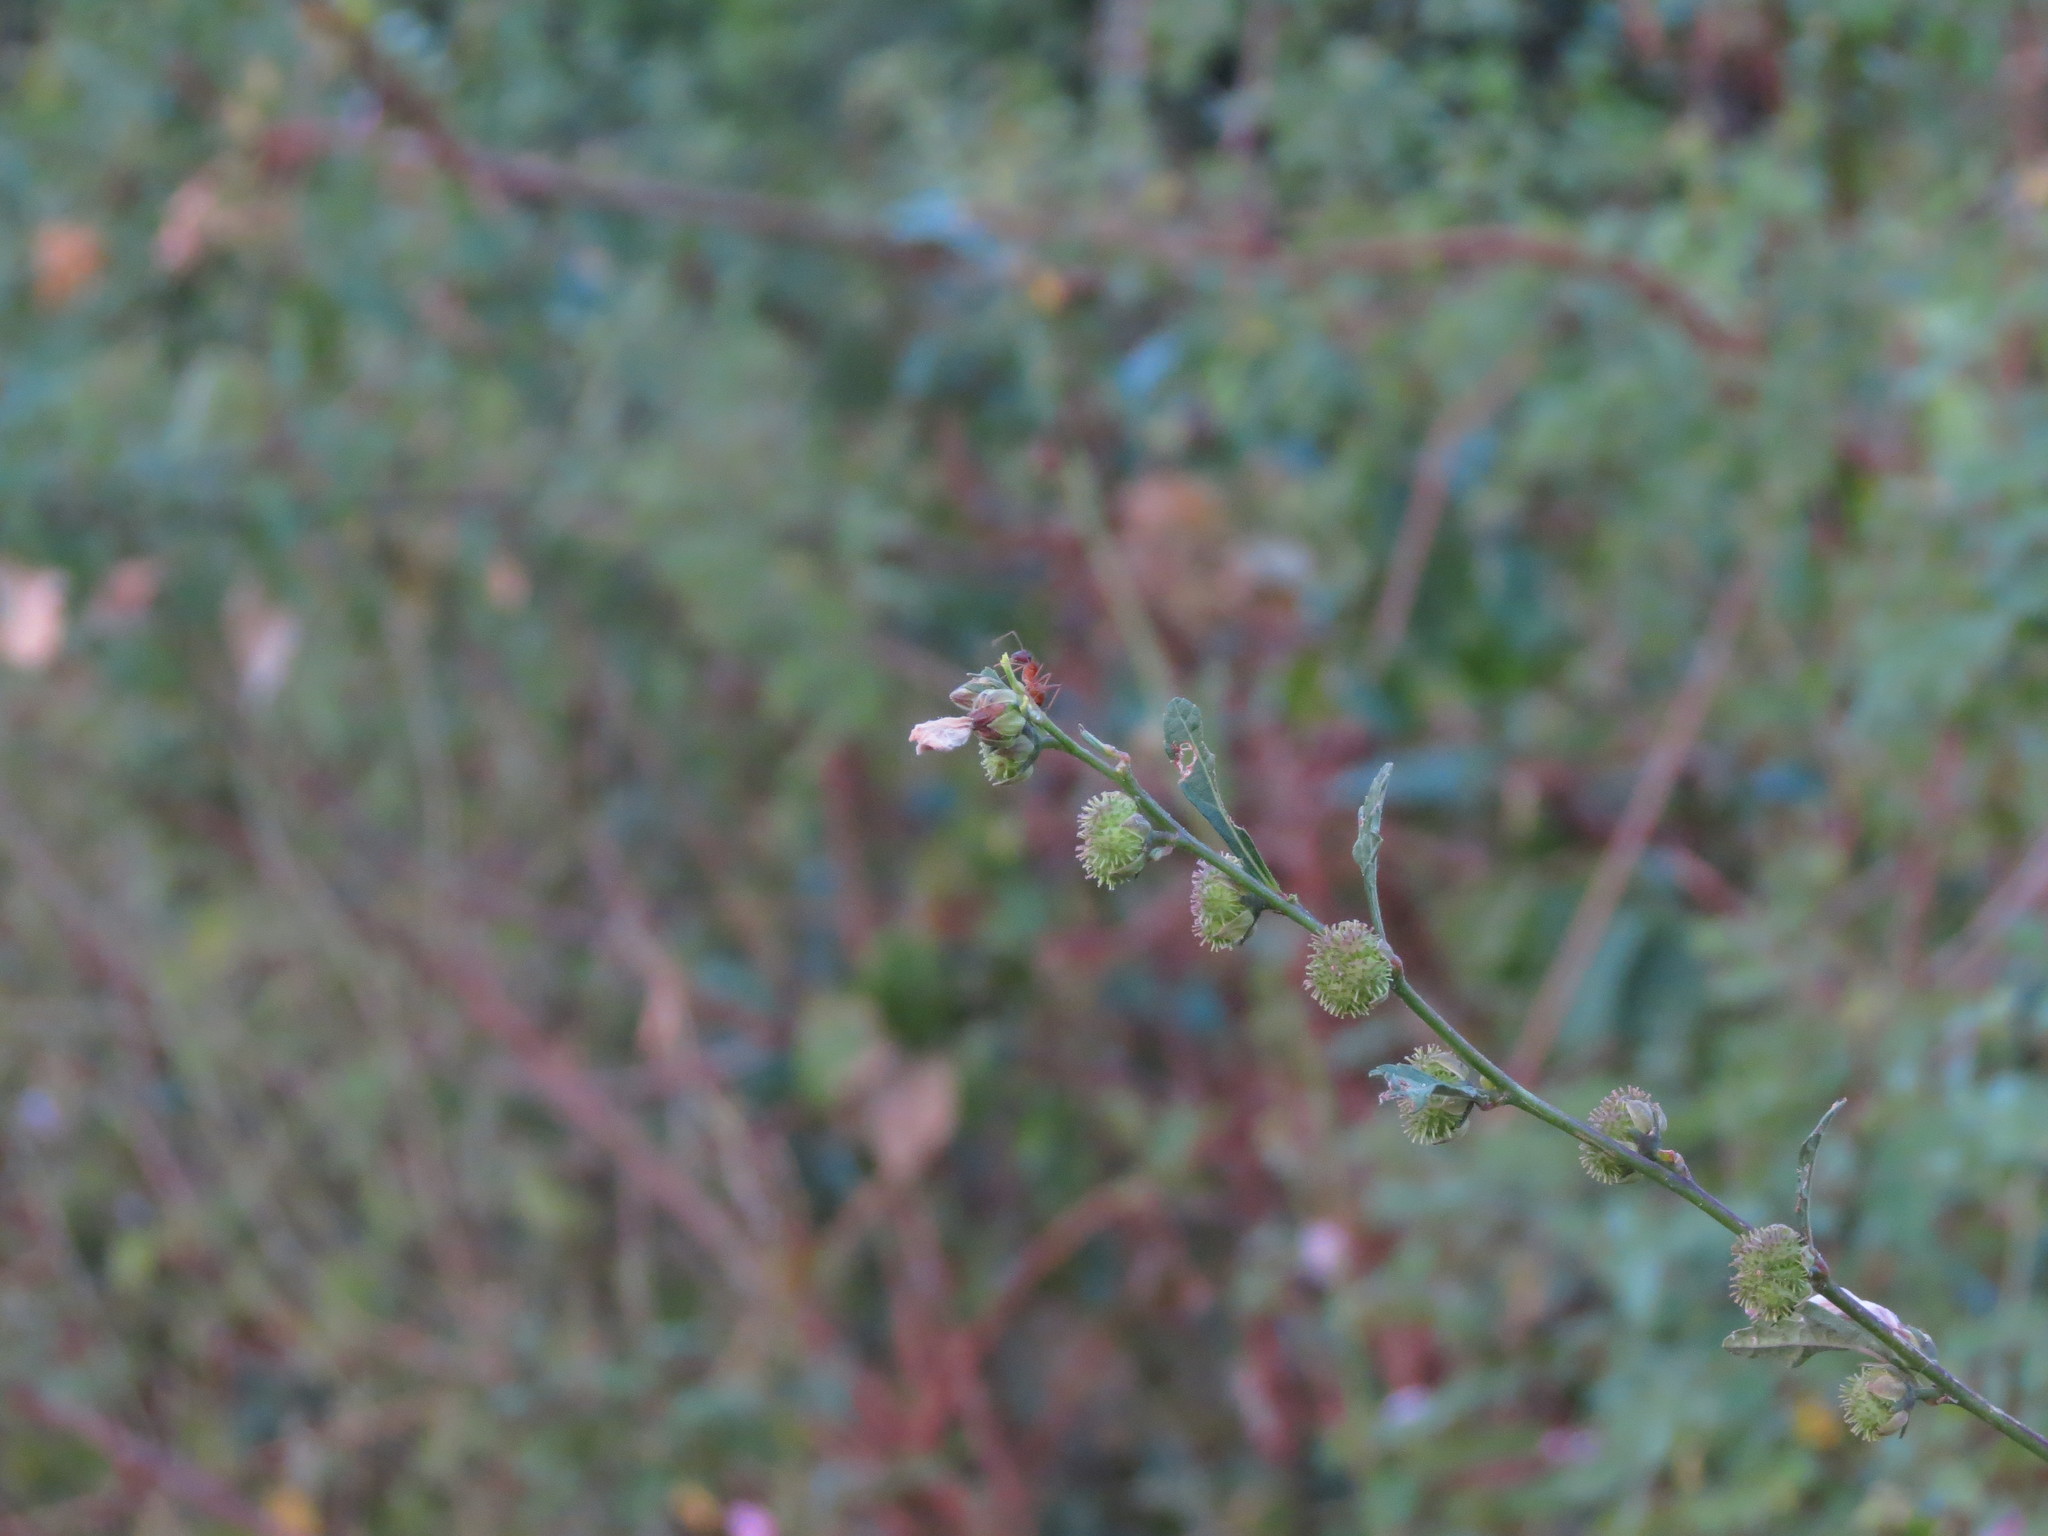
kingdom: Plantae
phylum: Tracheophyta
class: Magnoliopsida
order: Malvales
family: Malvaceae
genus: Urena
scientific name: Urena lobata
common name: Caesarweed
